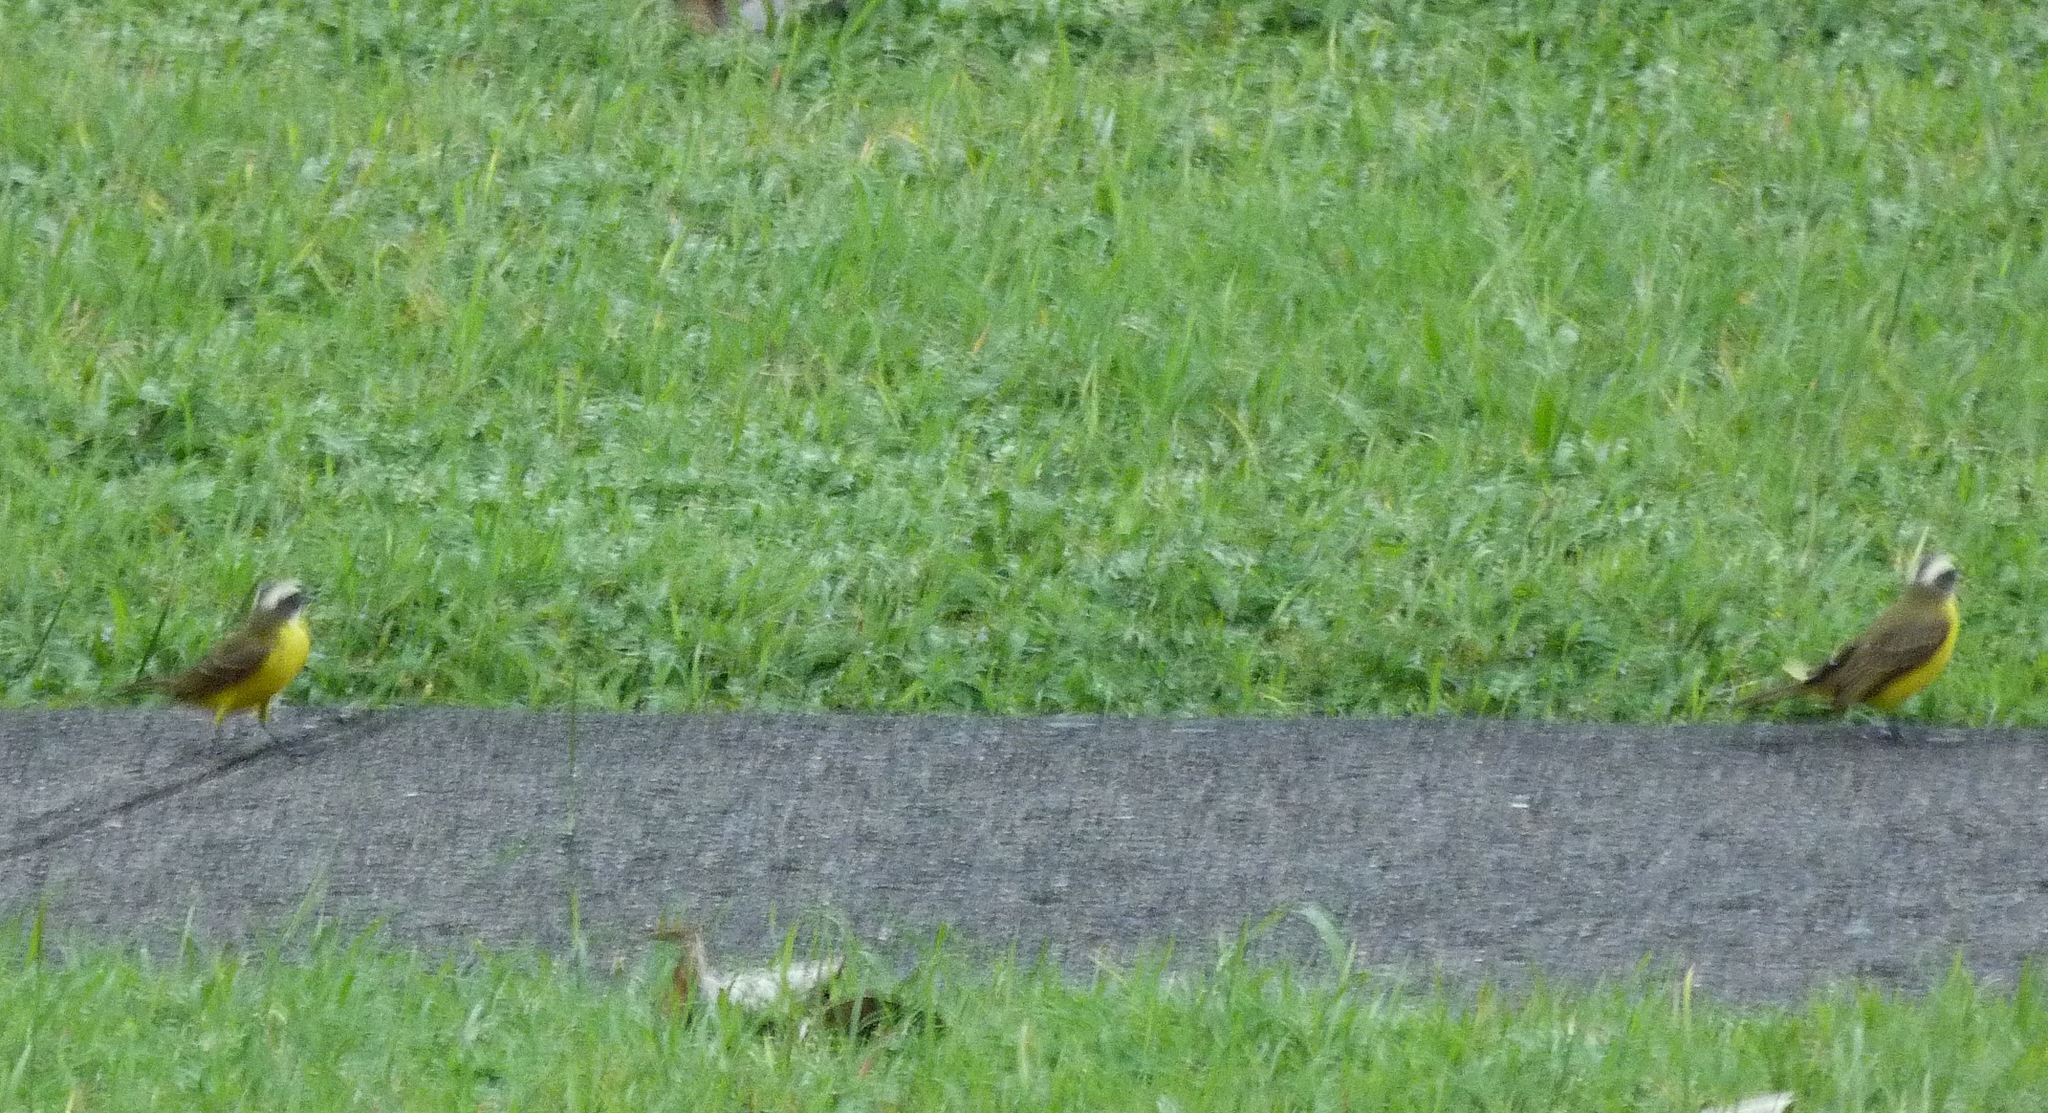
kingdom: Animalia
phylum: Chordata
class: Aves
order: Passeriformes
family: Tyrannidae
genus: Pitangus
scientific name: Pitangus sulphuratus
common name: Great kiskadee
